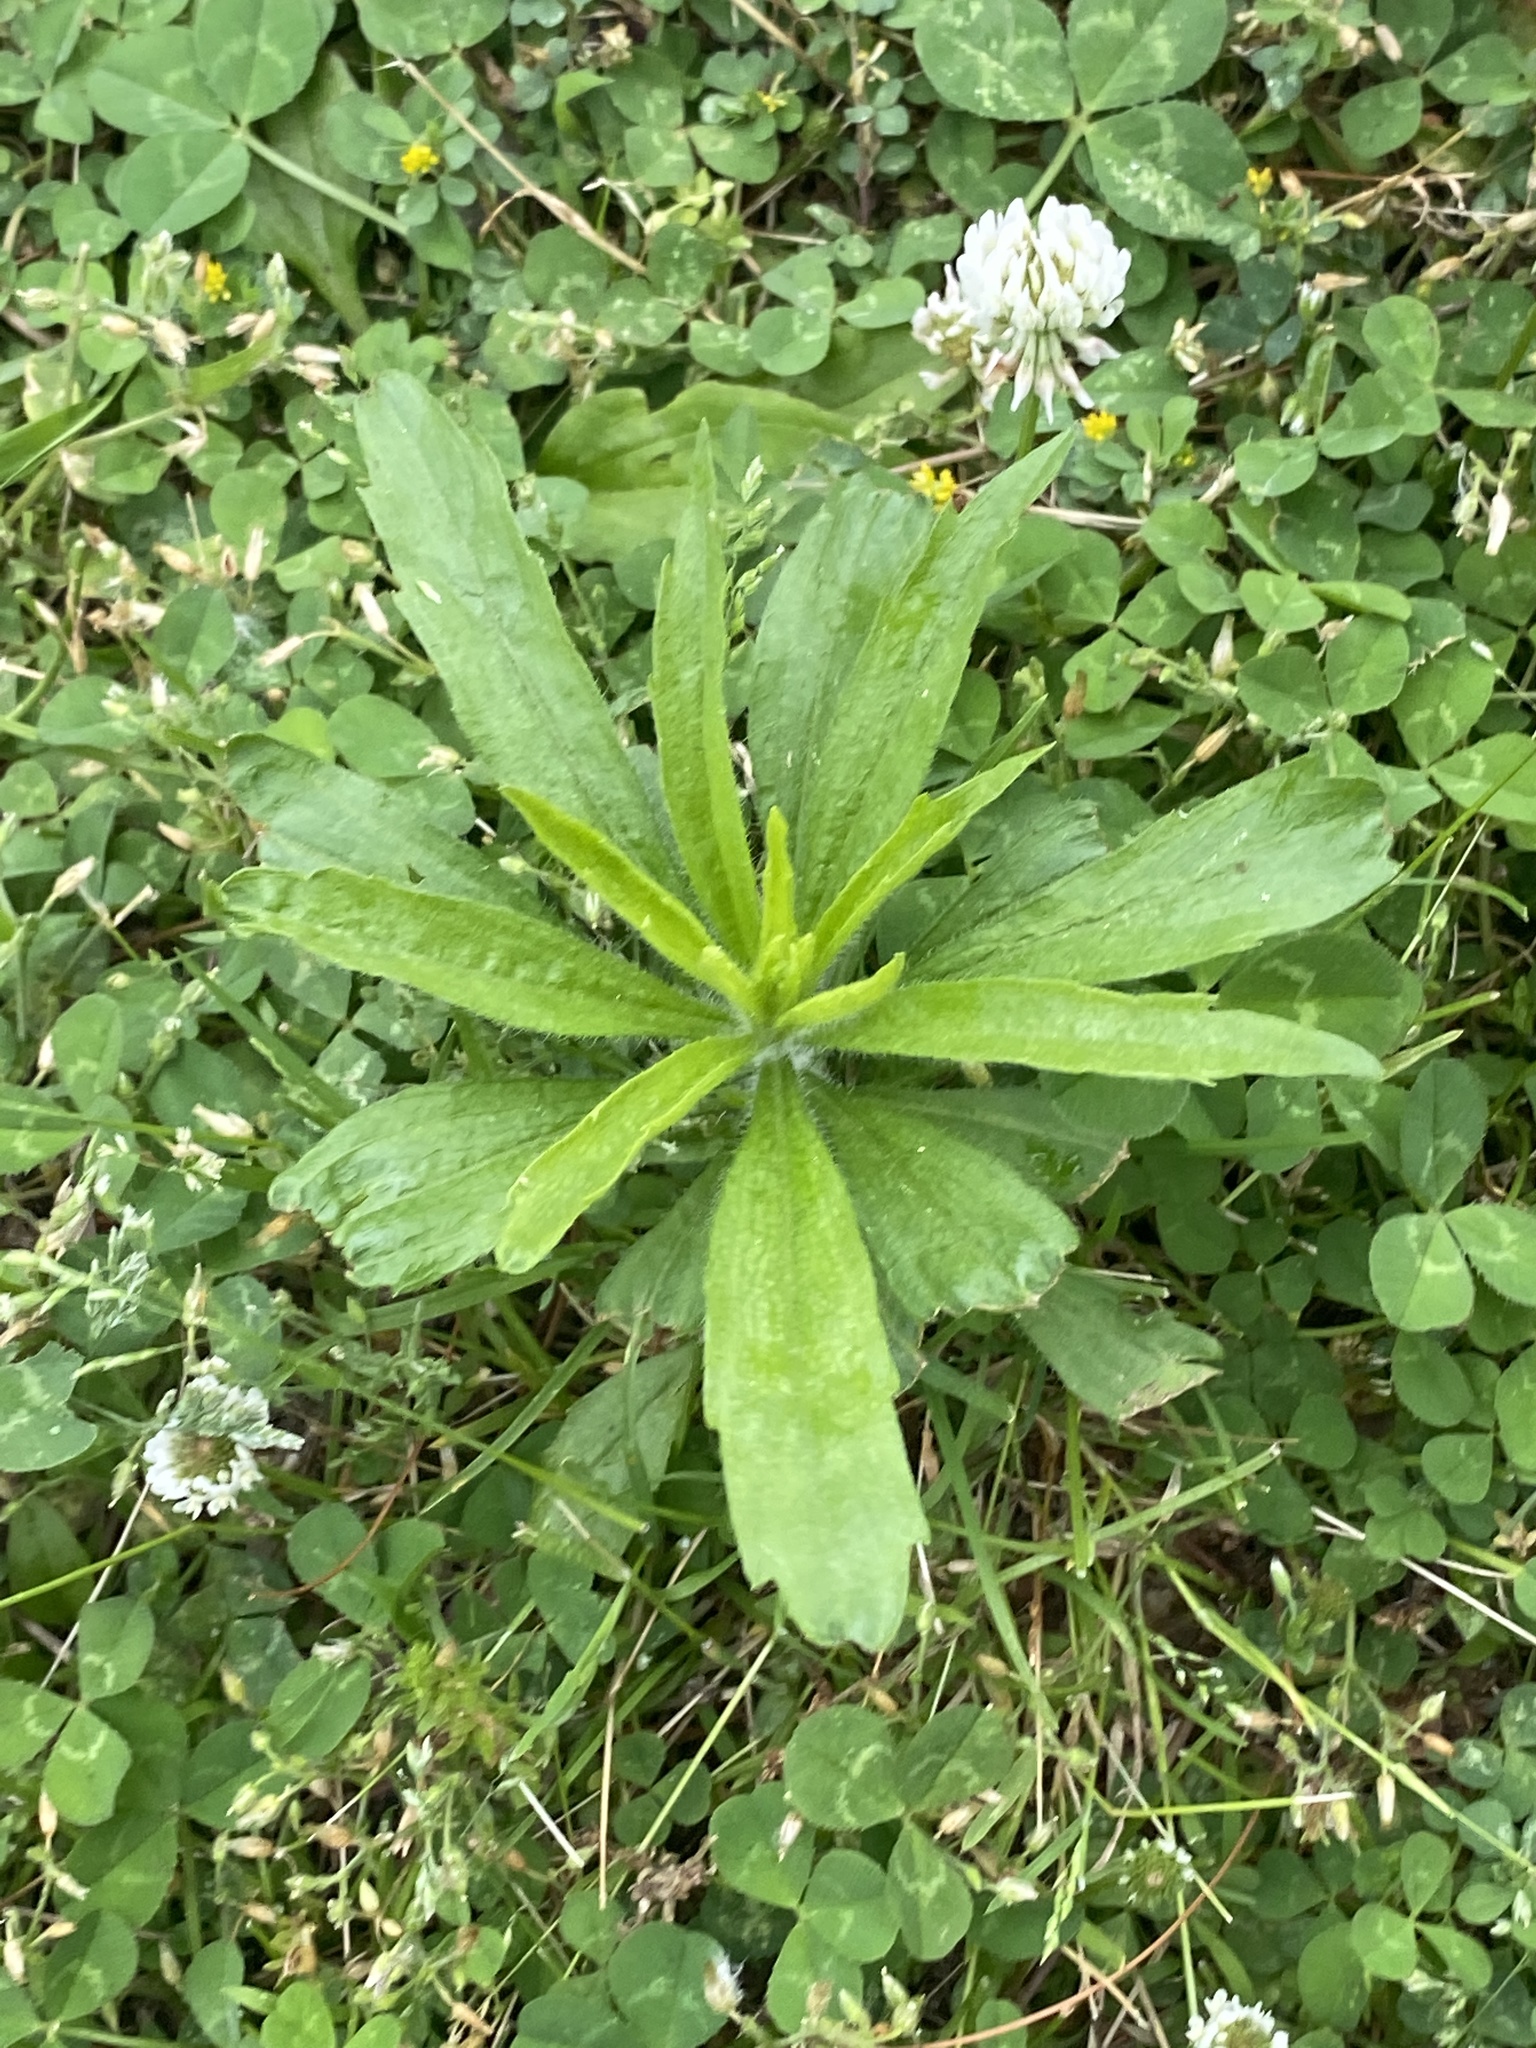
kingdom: Plantae
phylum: Tracheophyta
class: Magnoliopsida
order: Asterales
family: Asteraceae
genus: Erigeron
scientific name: Erigeron canadensis
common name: Canadian fleabane
